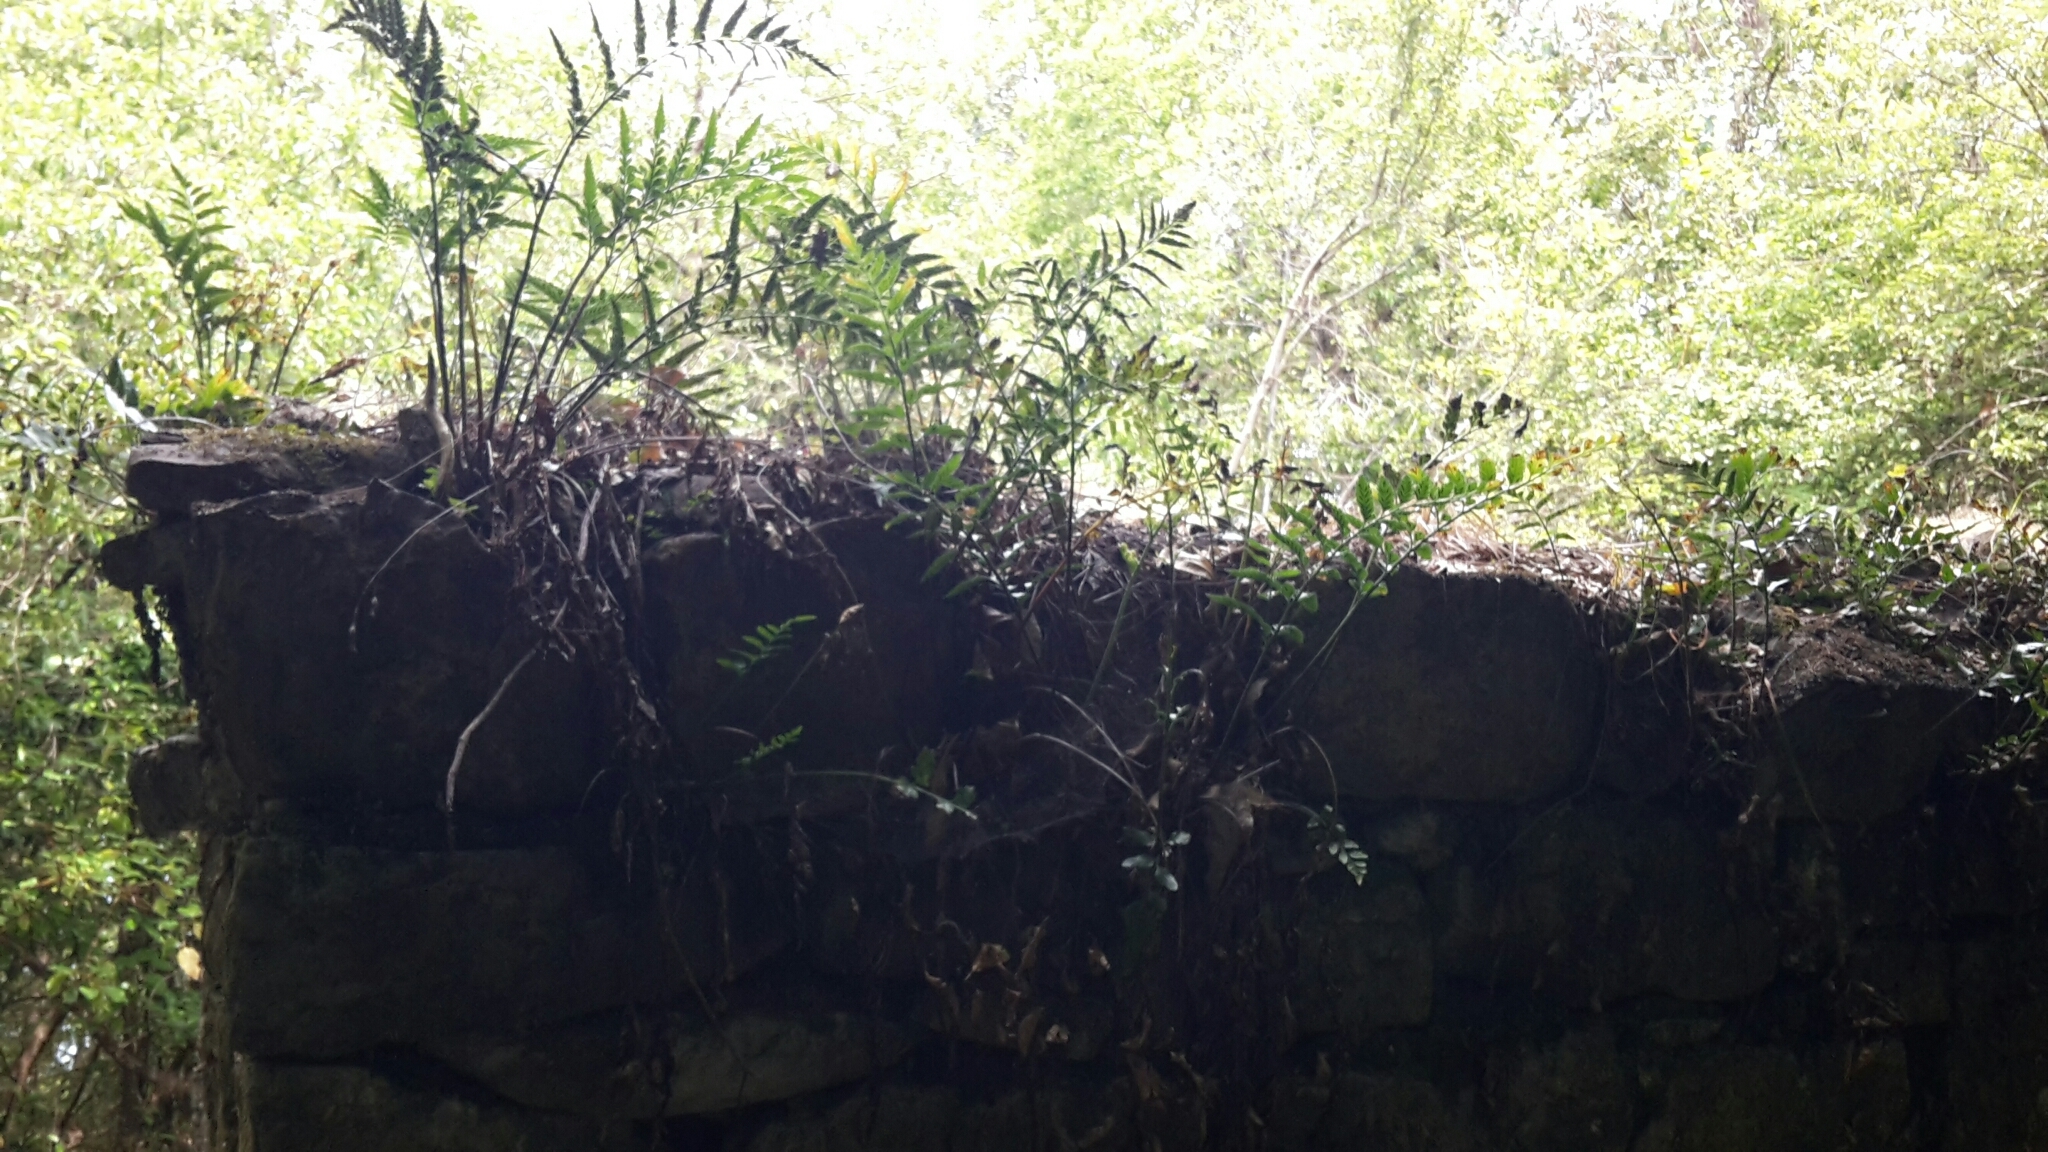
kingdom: Plantae
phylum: Tracheophyta
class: Polypodiopsida
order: Polypodiales
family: Aspleniaceae
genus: Asplenium
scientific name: Asplenium lyallii
